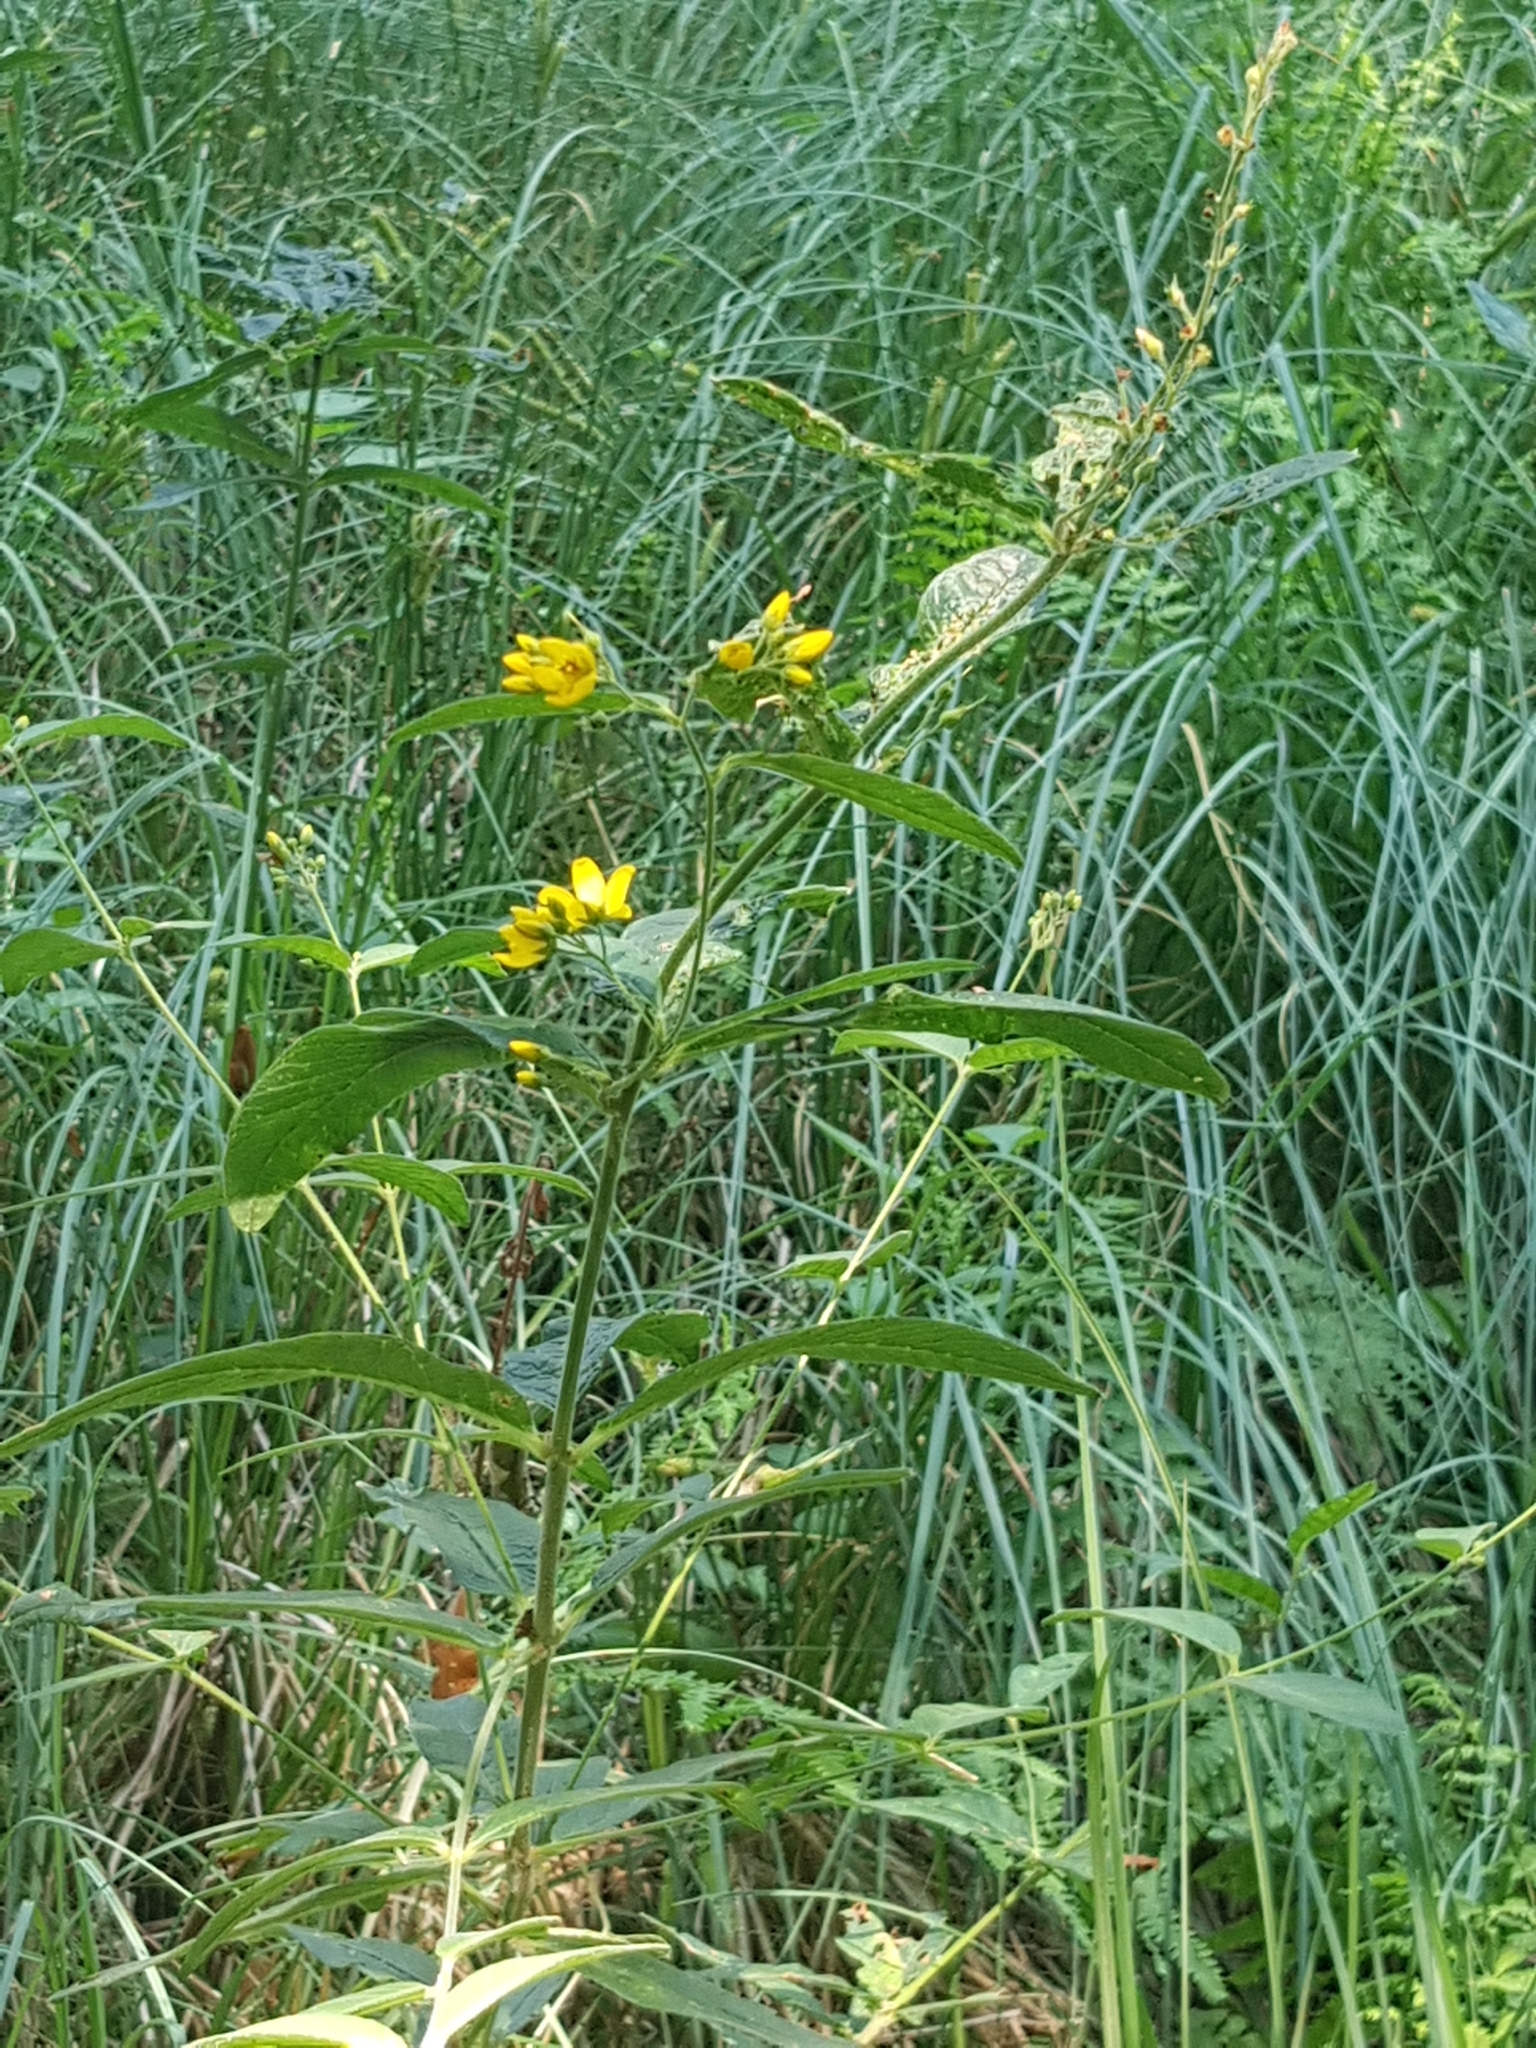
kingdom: Plantae
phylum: Tracheophyta
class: Magnoliopsida
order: Ericales
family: Primulaceae
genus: Lysimachia
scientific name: Lysimachia vulgaris
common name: Yellow loosestrife
